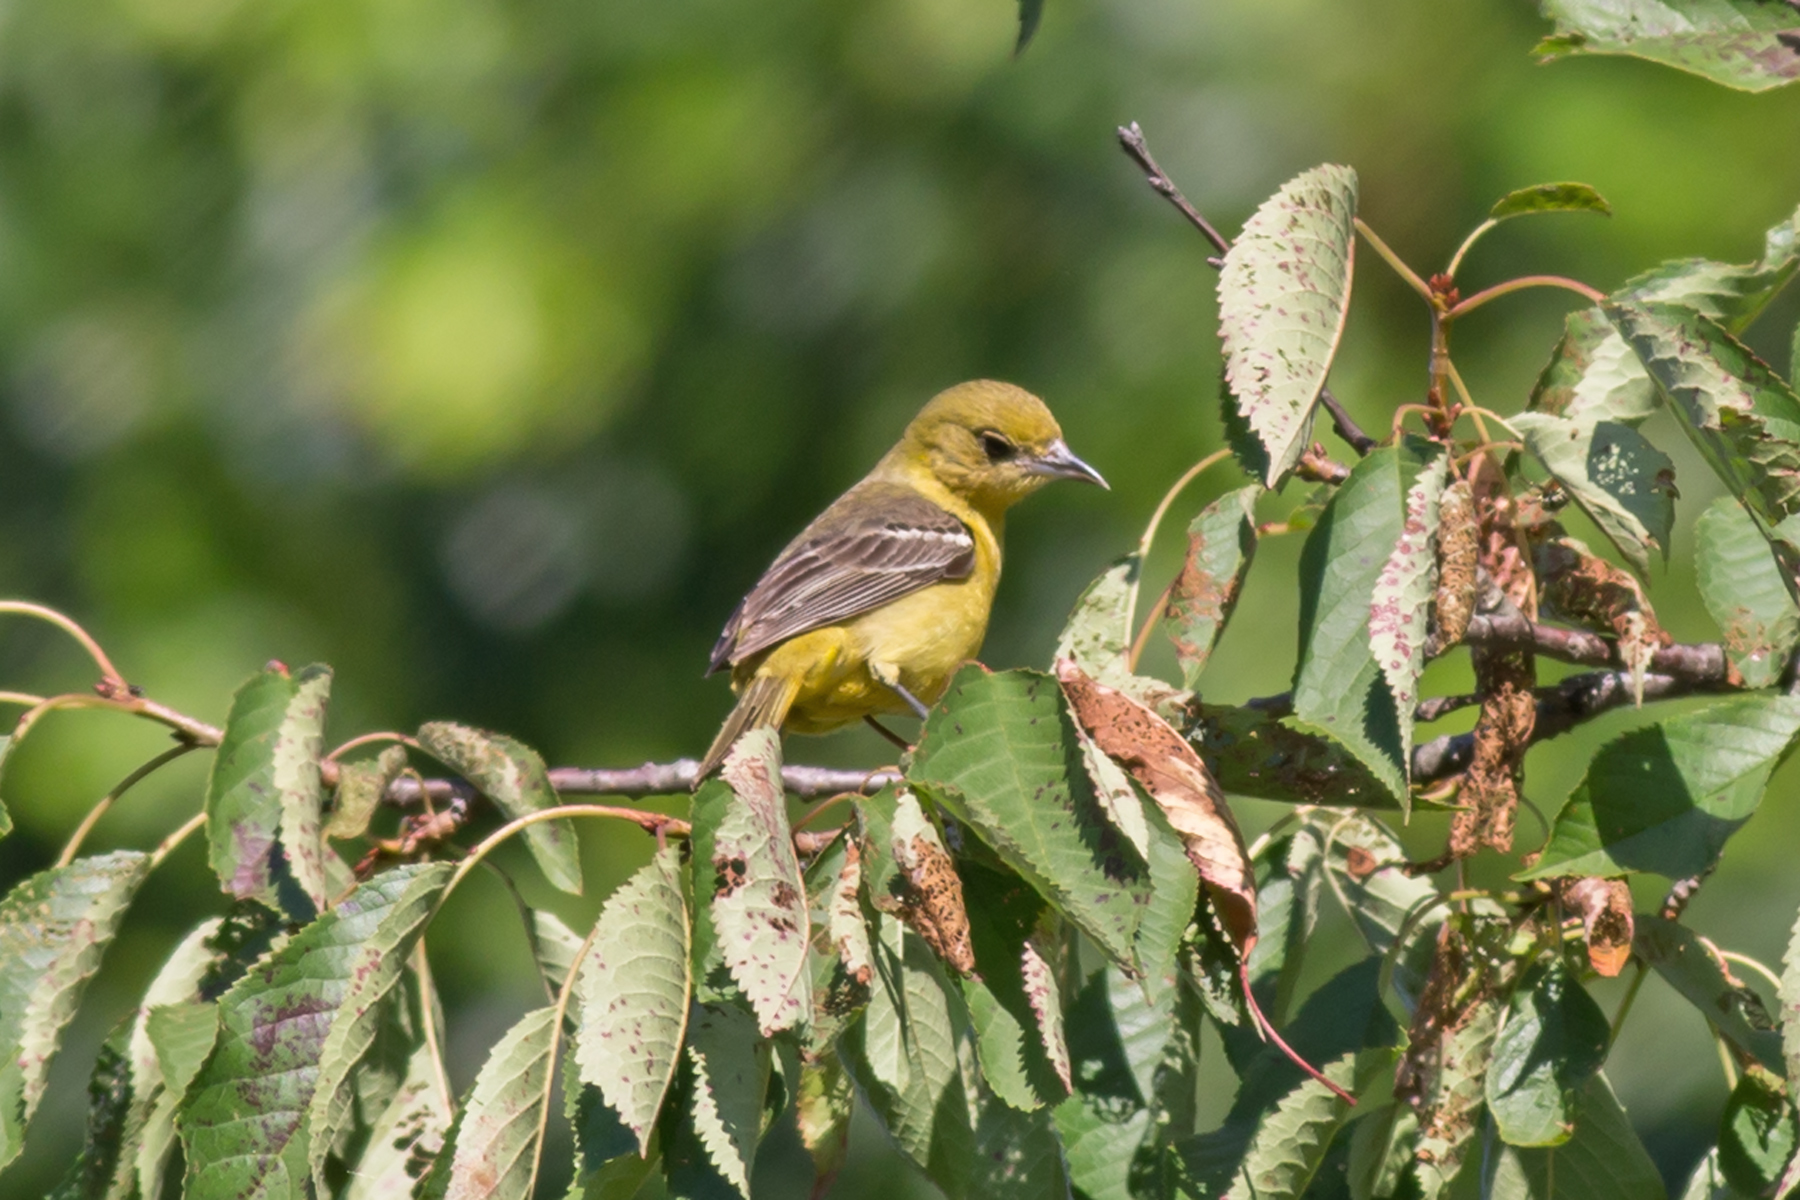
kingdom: Animalia
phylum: Chordata
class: Aves
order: Passeriformes
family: Icteridae
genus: Icterus
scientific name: Icterus spurius
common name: Orchard oriole
